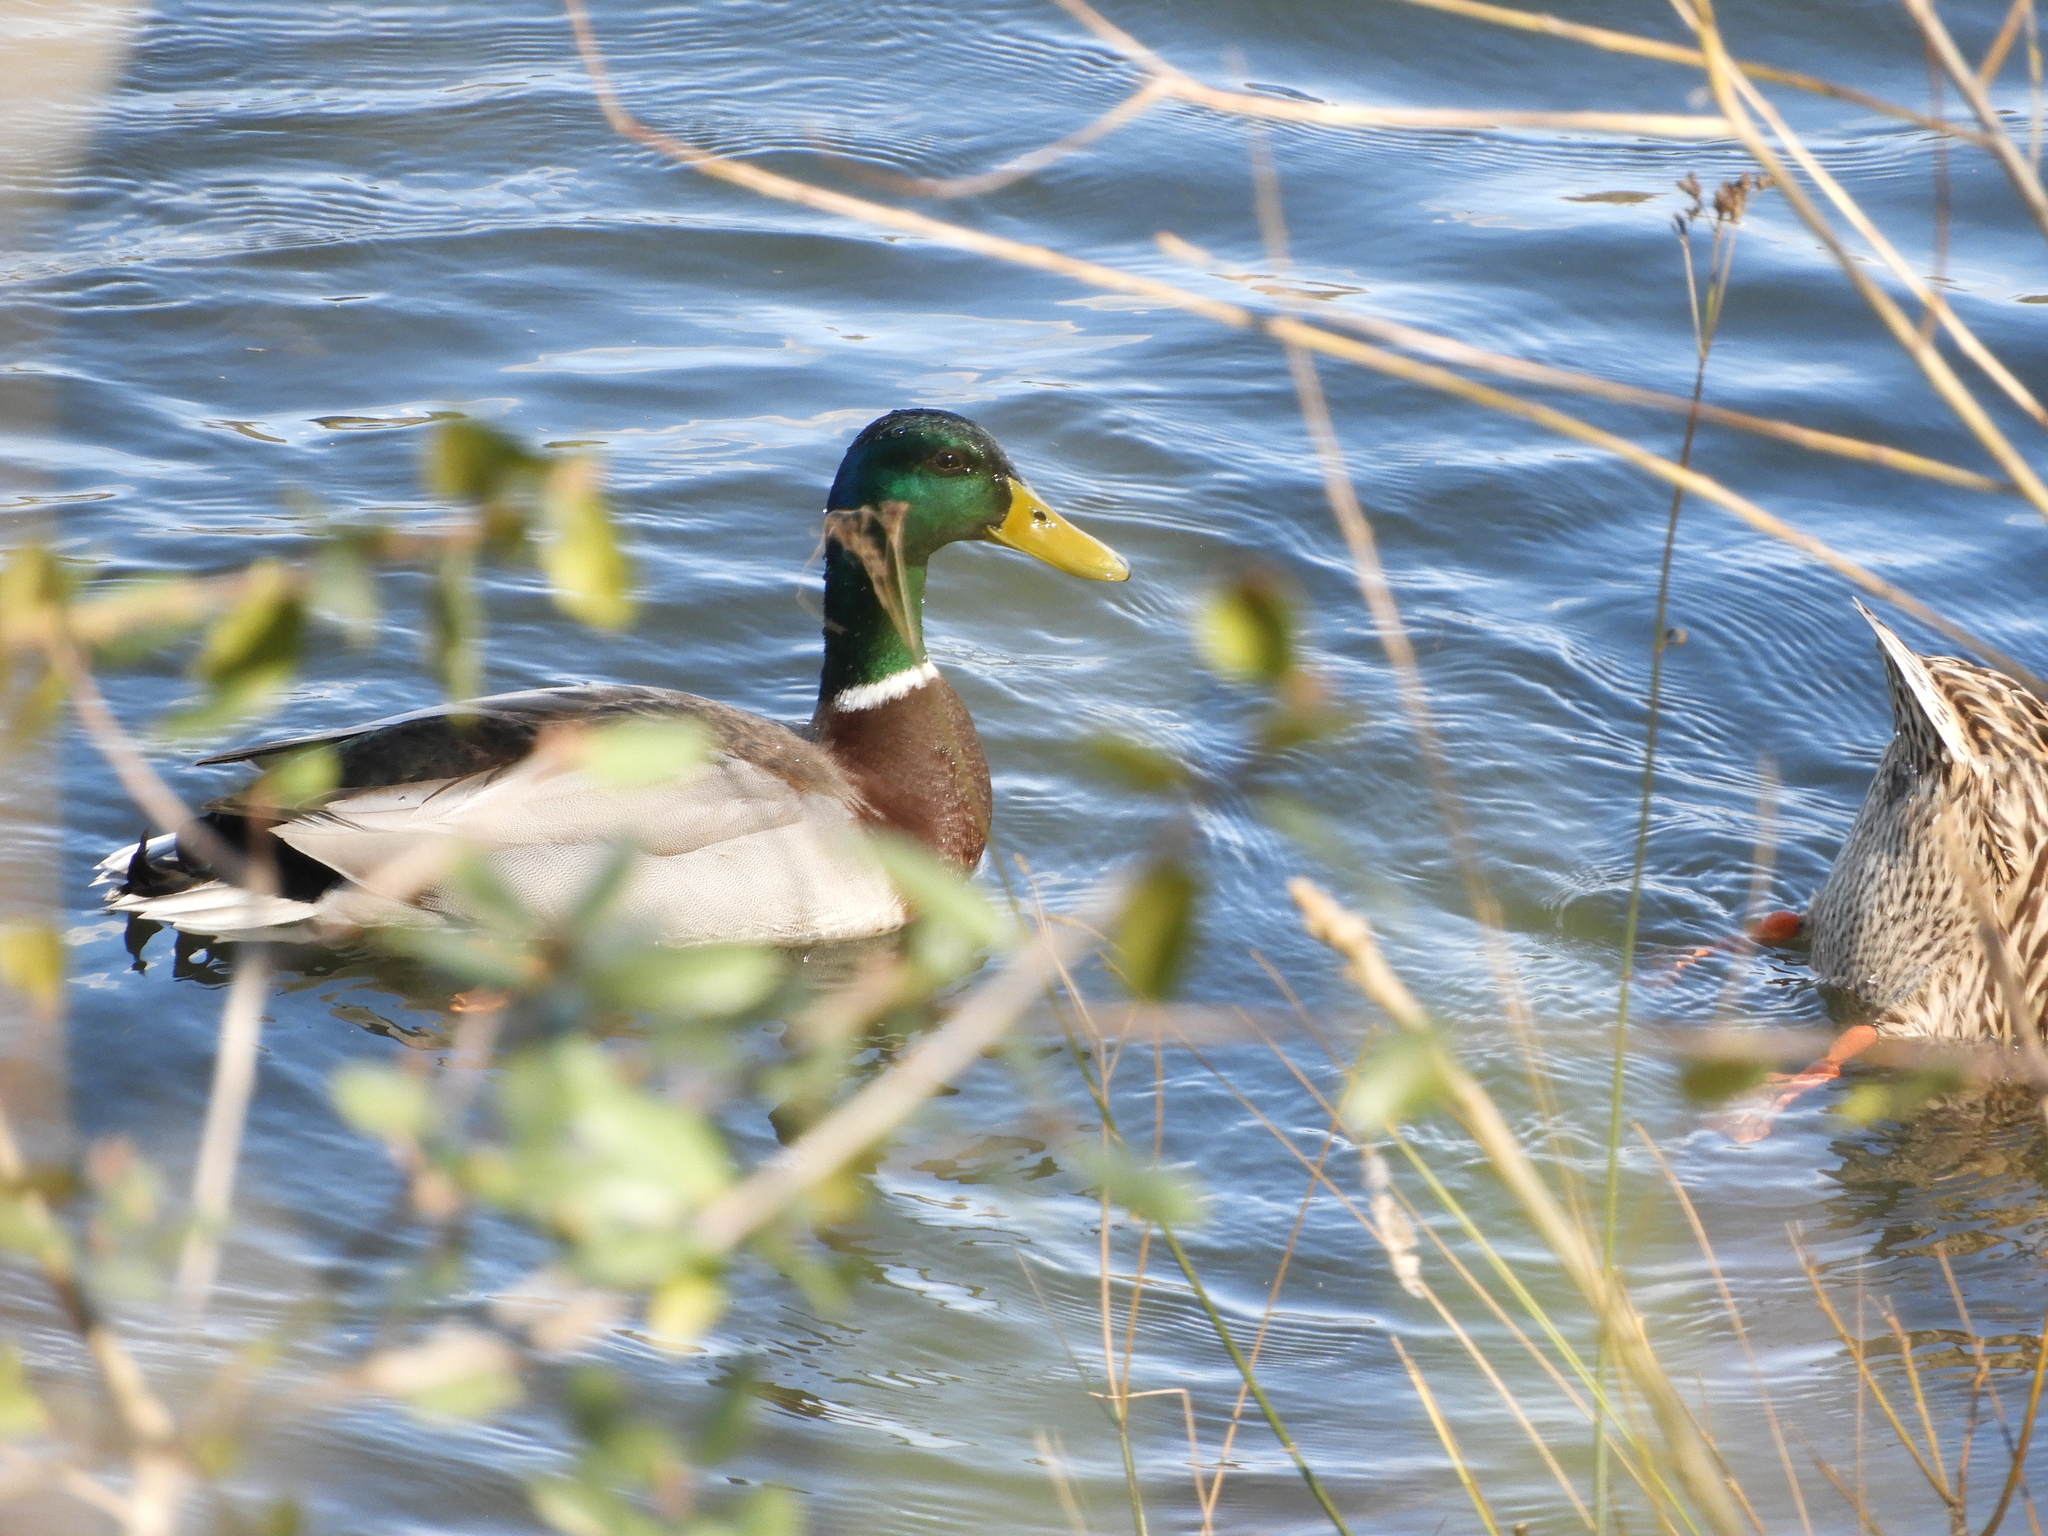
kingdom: Animalia
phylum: Chordata
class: Aves
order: Anseriformes
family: Anatidae
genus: Anas
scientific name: Anas platyrhynchos
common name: Mallard
